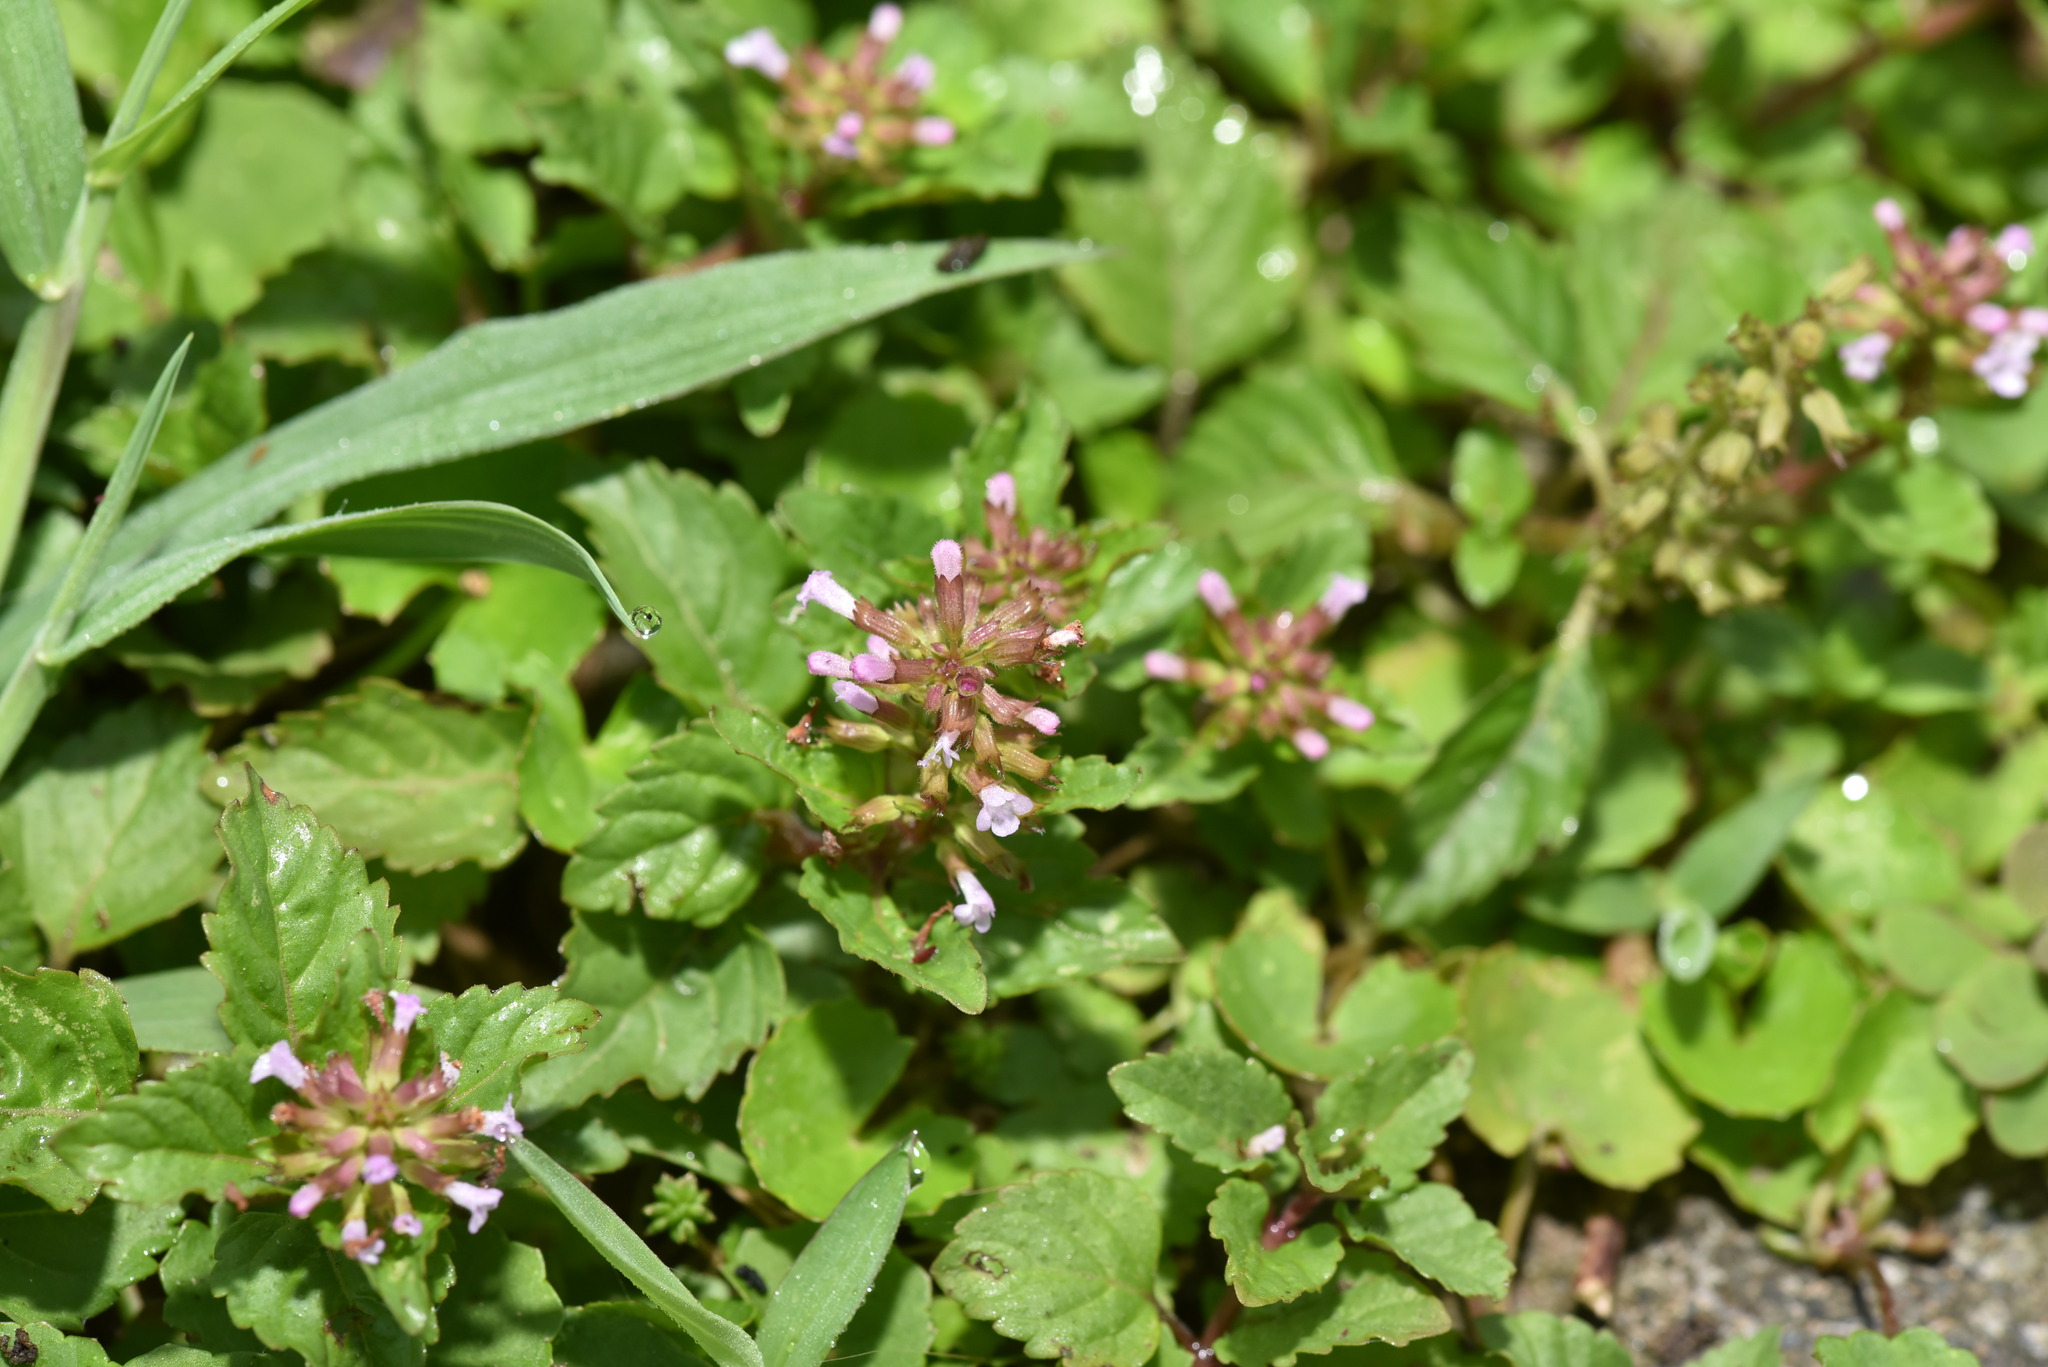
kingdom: Plantae
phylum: Tracheophyta
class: Magnoliopsida
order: Lamiales
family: Lamiaceae
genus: Clinopodium
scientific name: Clinopodium gracile
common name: Slender wild basil
